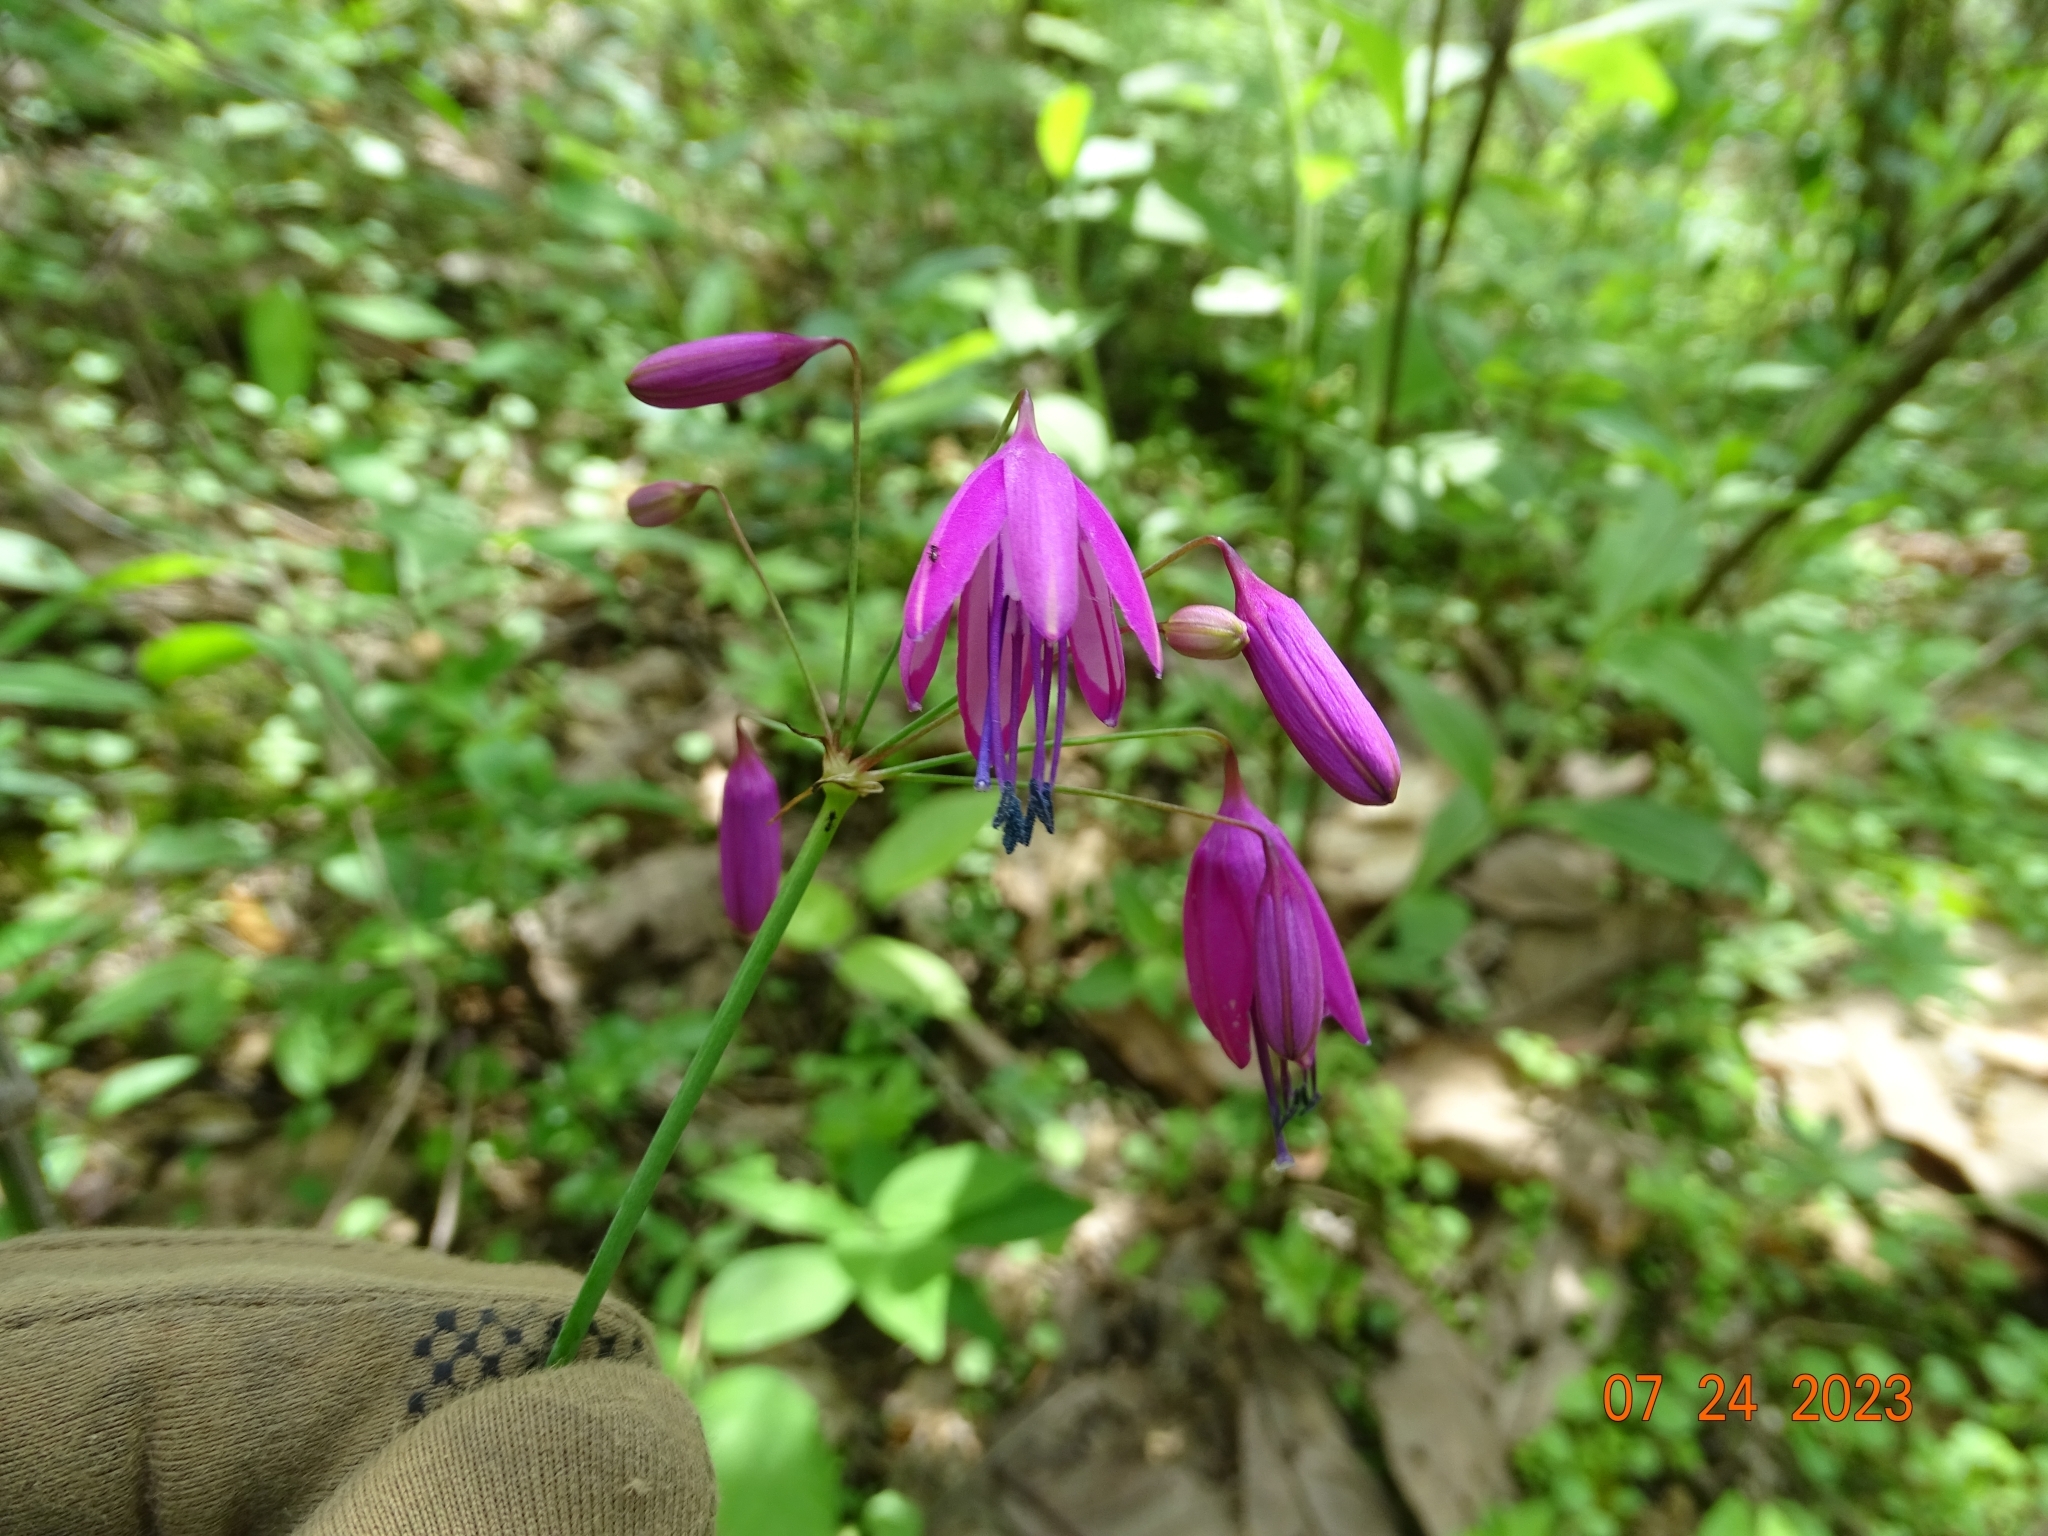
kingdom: Plantae
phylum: Tracheophyta
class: Liliopsida
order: Asparagales
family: Amaryllidaceae
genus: Bessera
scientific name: Bessera elegantissima
